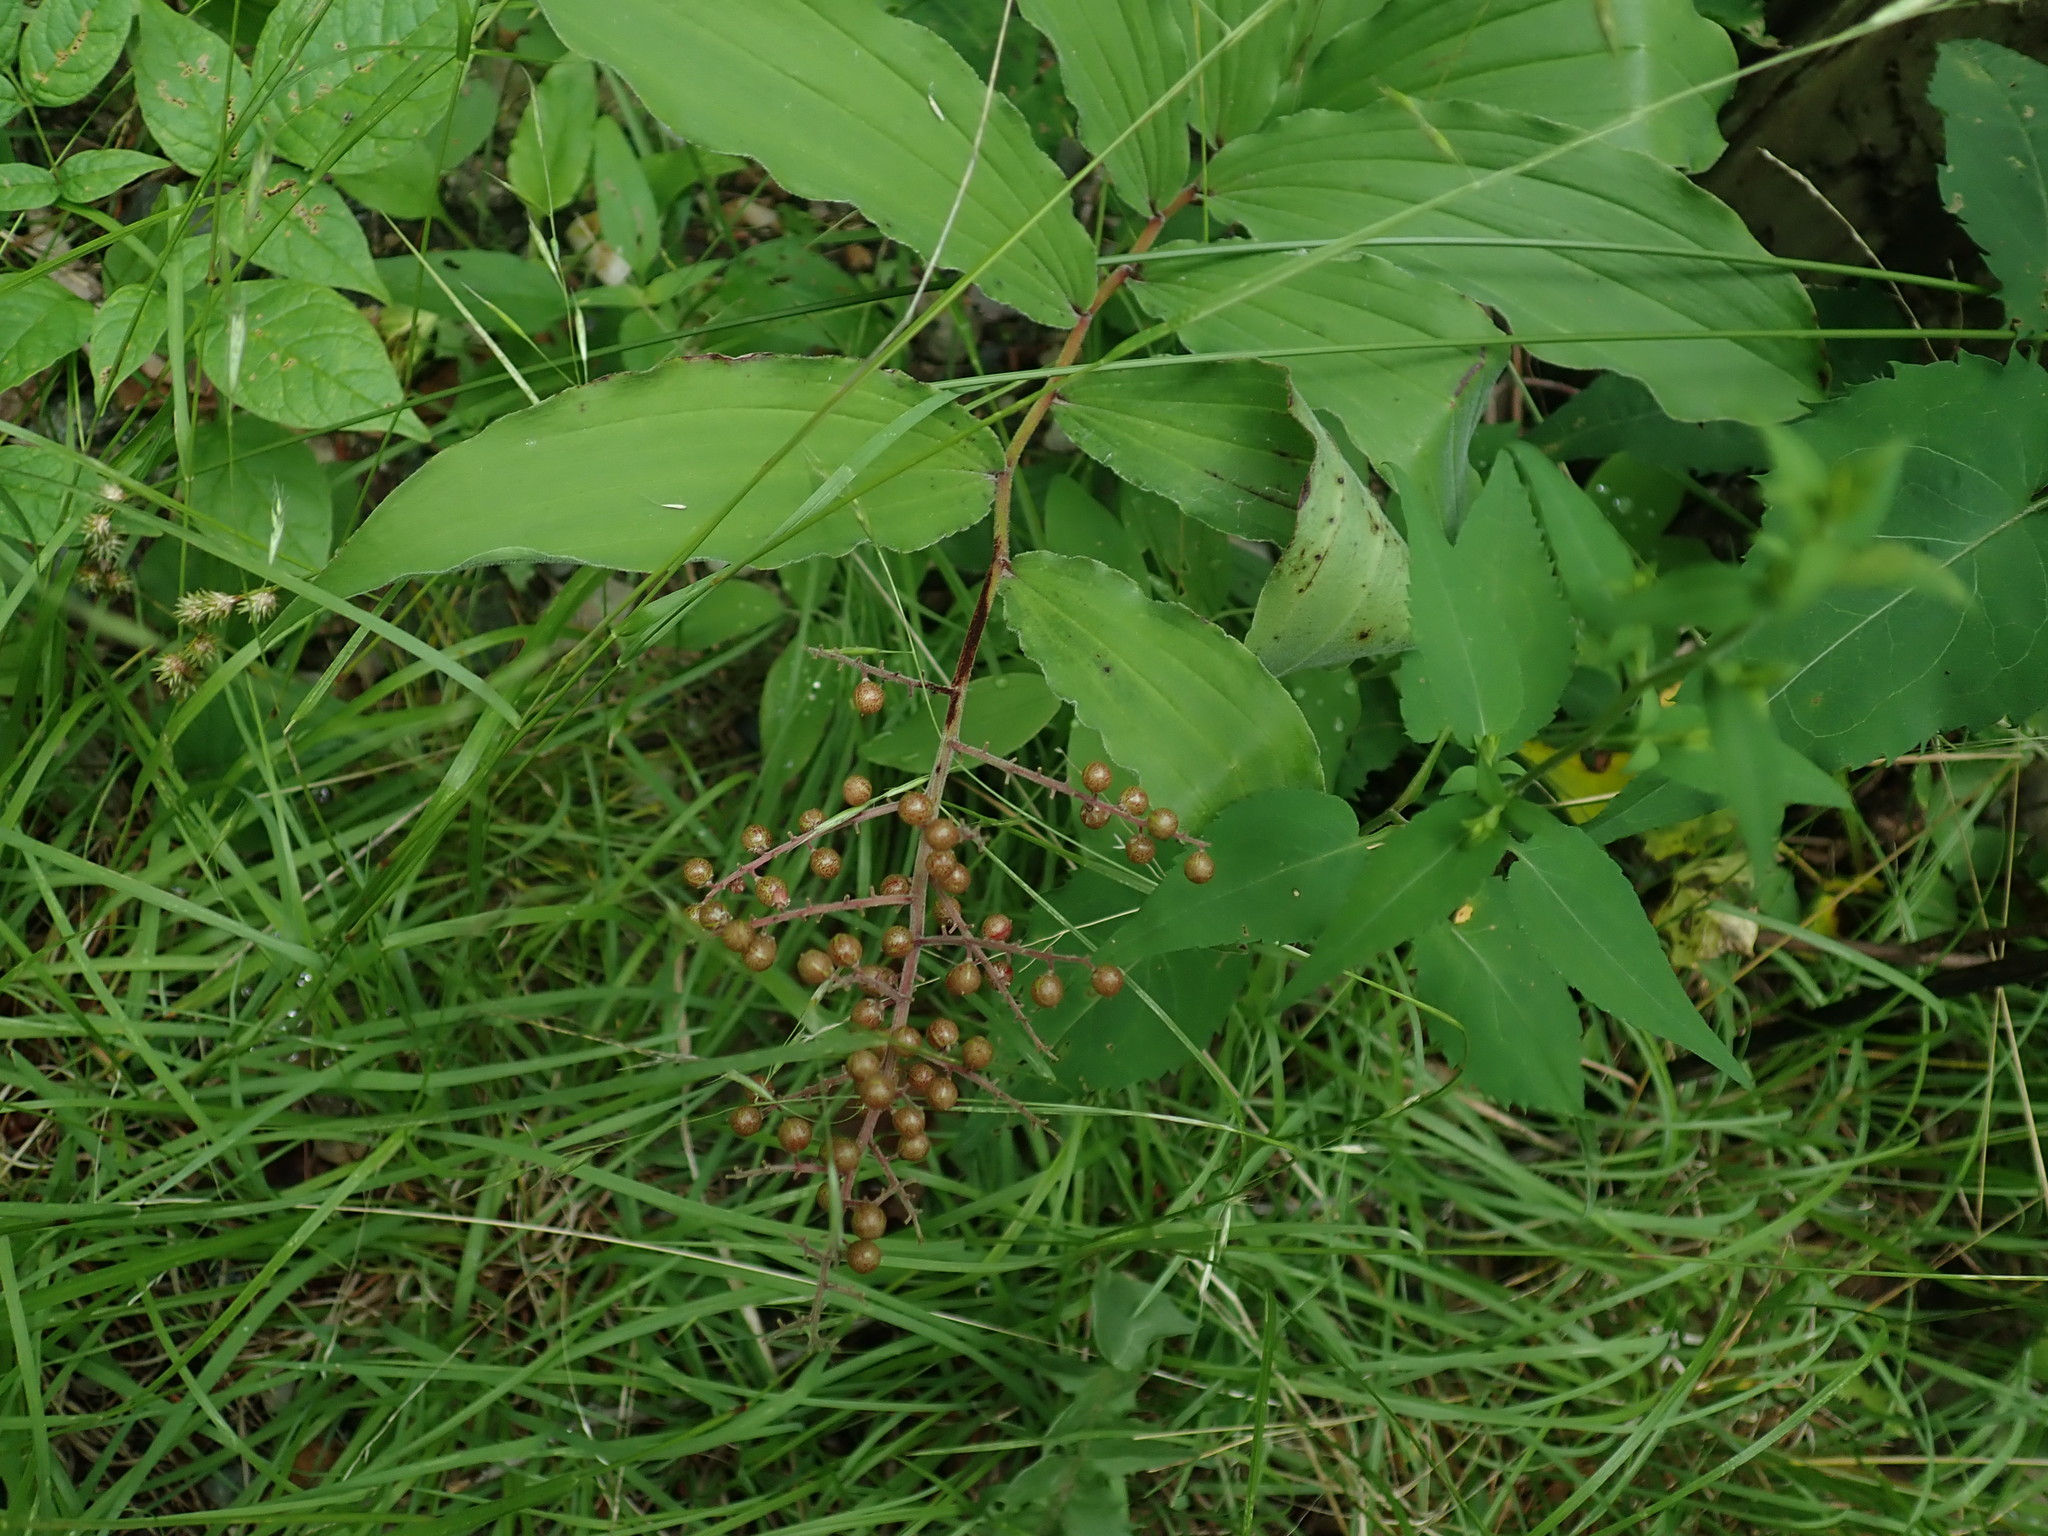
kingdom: Plantae
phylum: Tracheophyta
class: Liliopsida
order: Asparagales
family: Asparagaceae
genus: Maianthemum
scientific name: Maianthemum racemosum
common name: False spikenard
